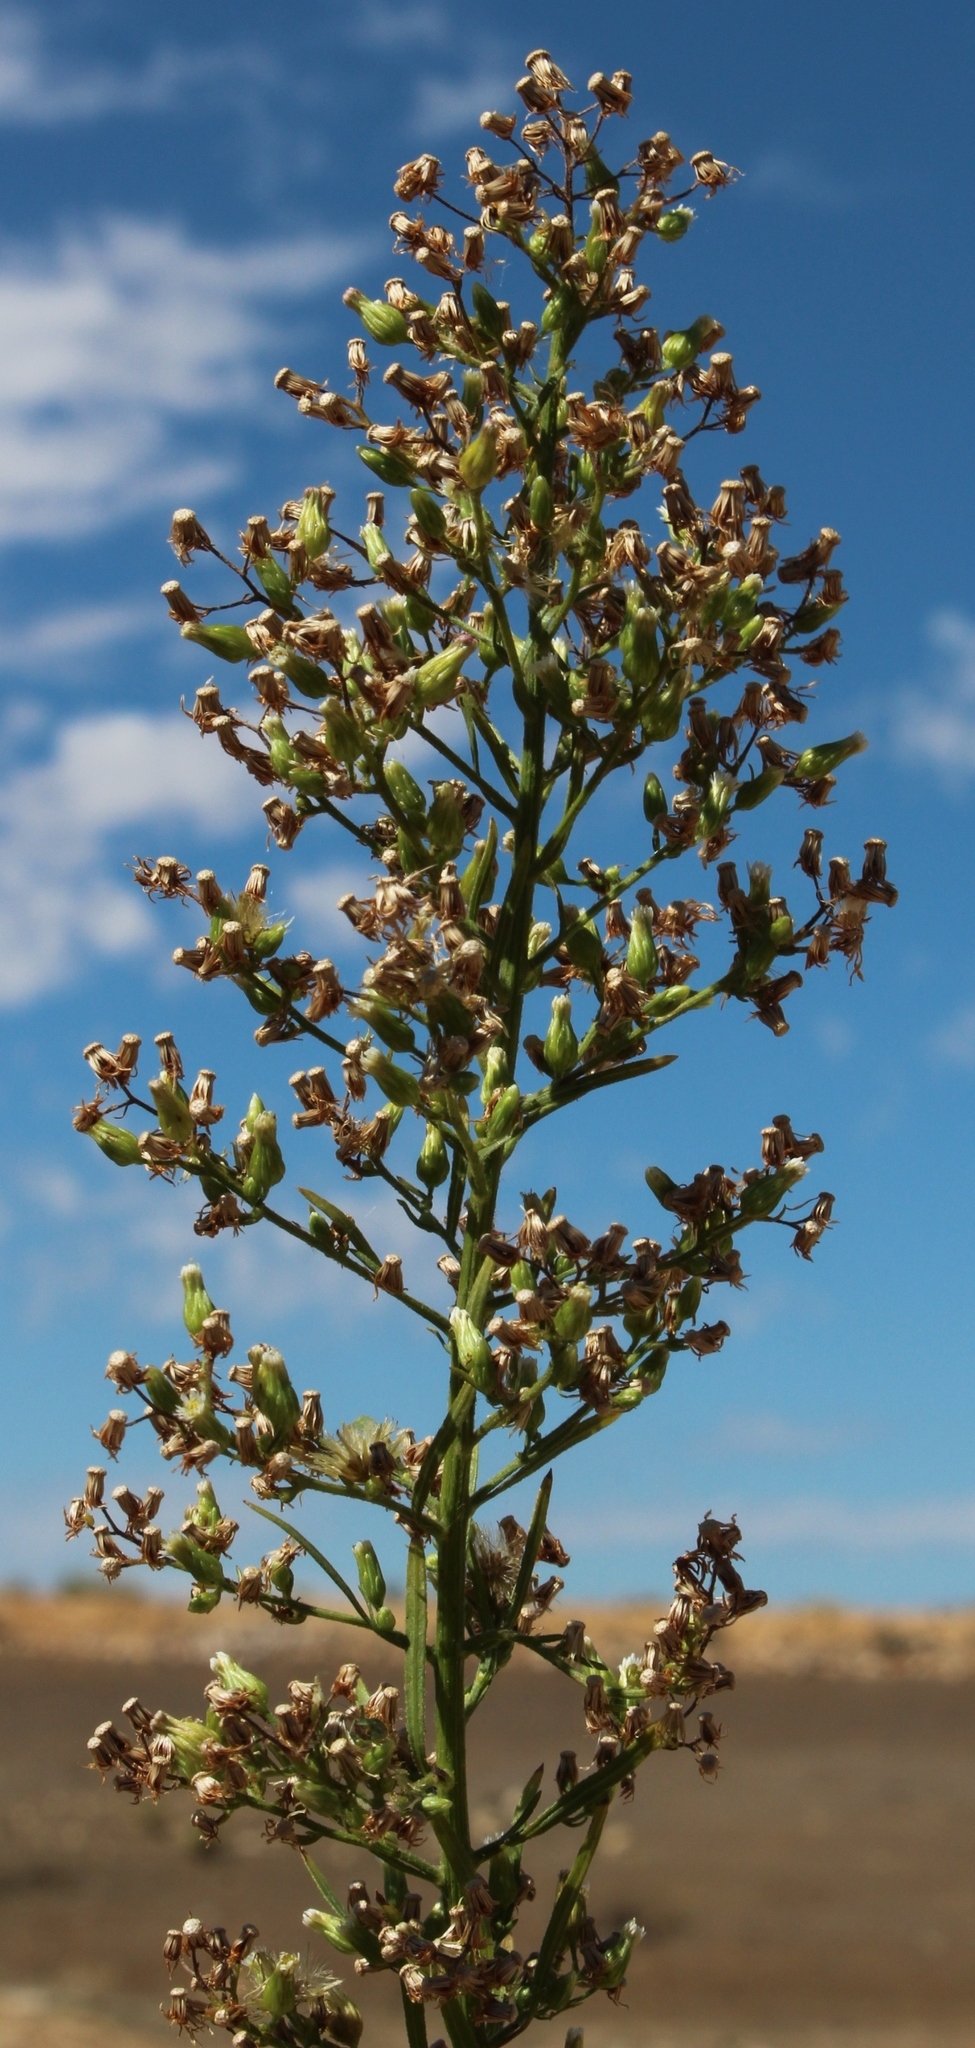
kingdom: Plantae
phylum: Tracheophyta
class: Magnoliopsida
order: Asterales
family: Asteraceae
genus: Erigeron
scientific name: Erigeron canadensis
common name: Canadian fleabane
